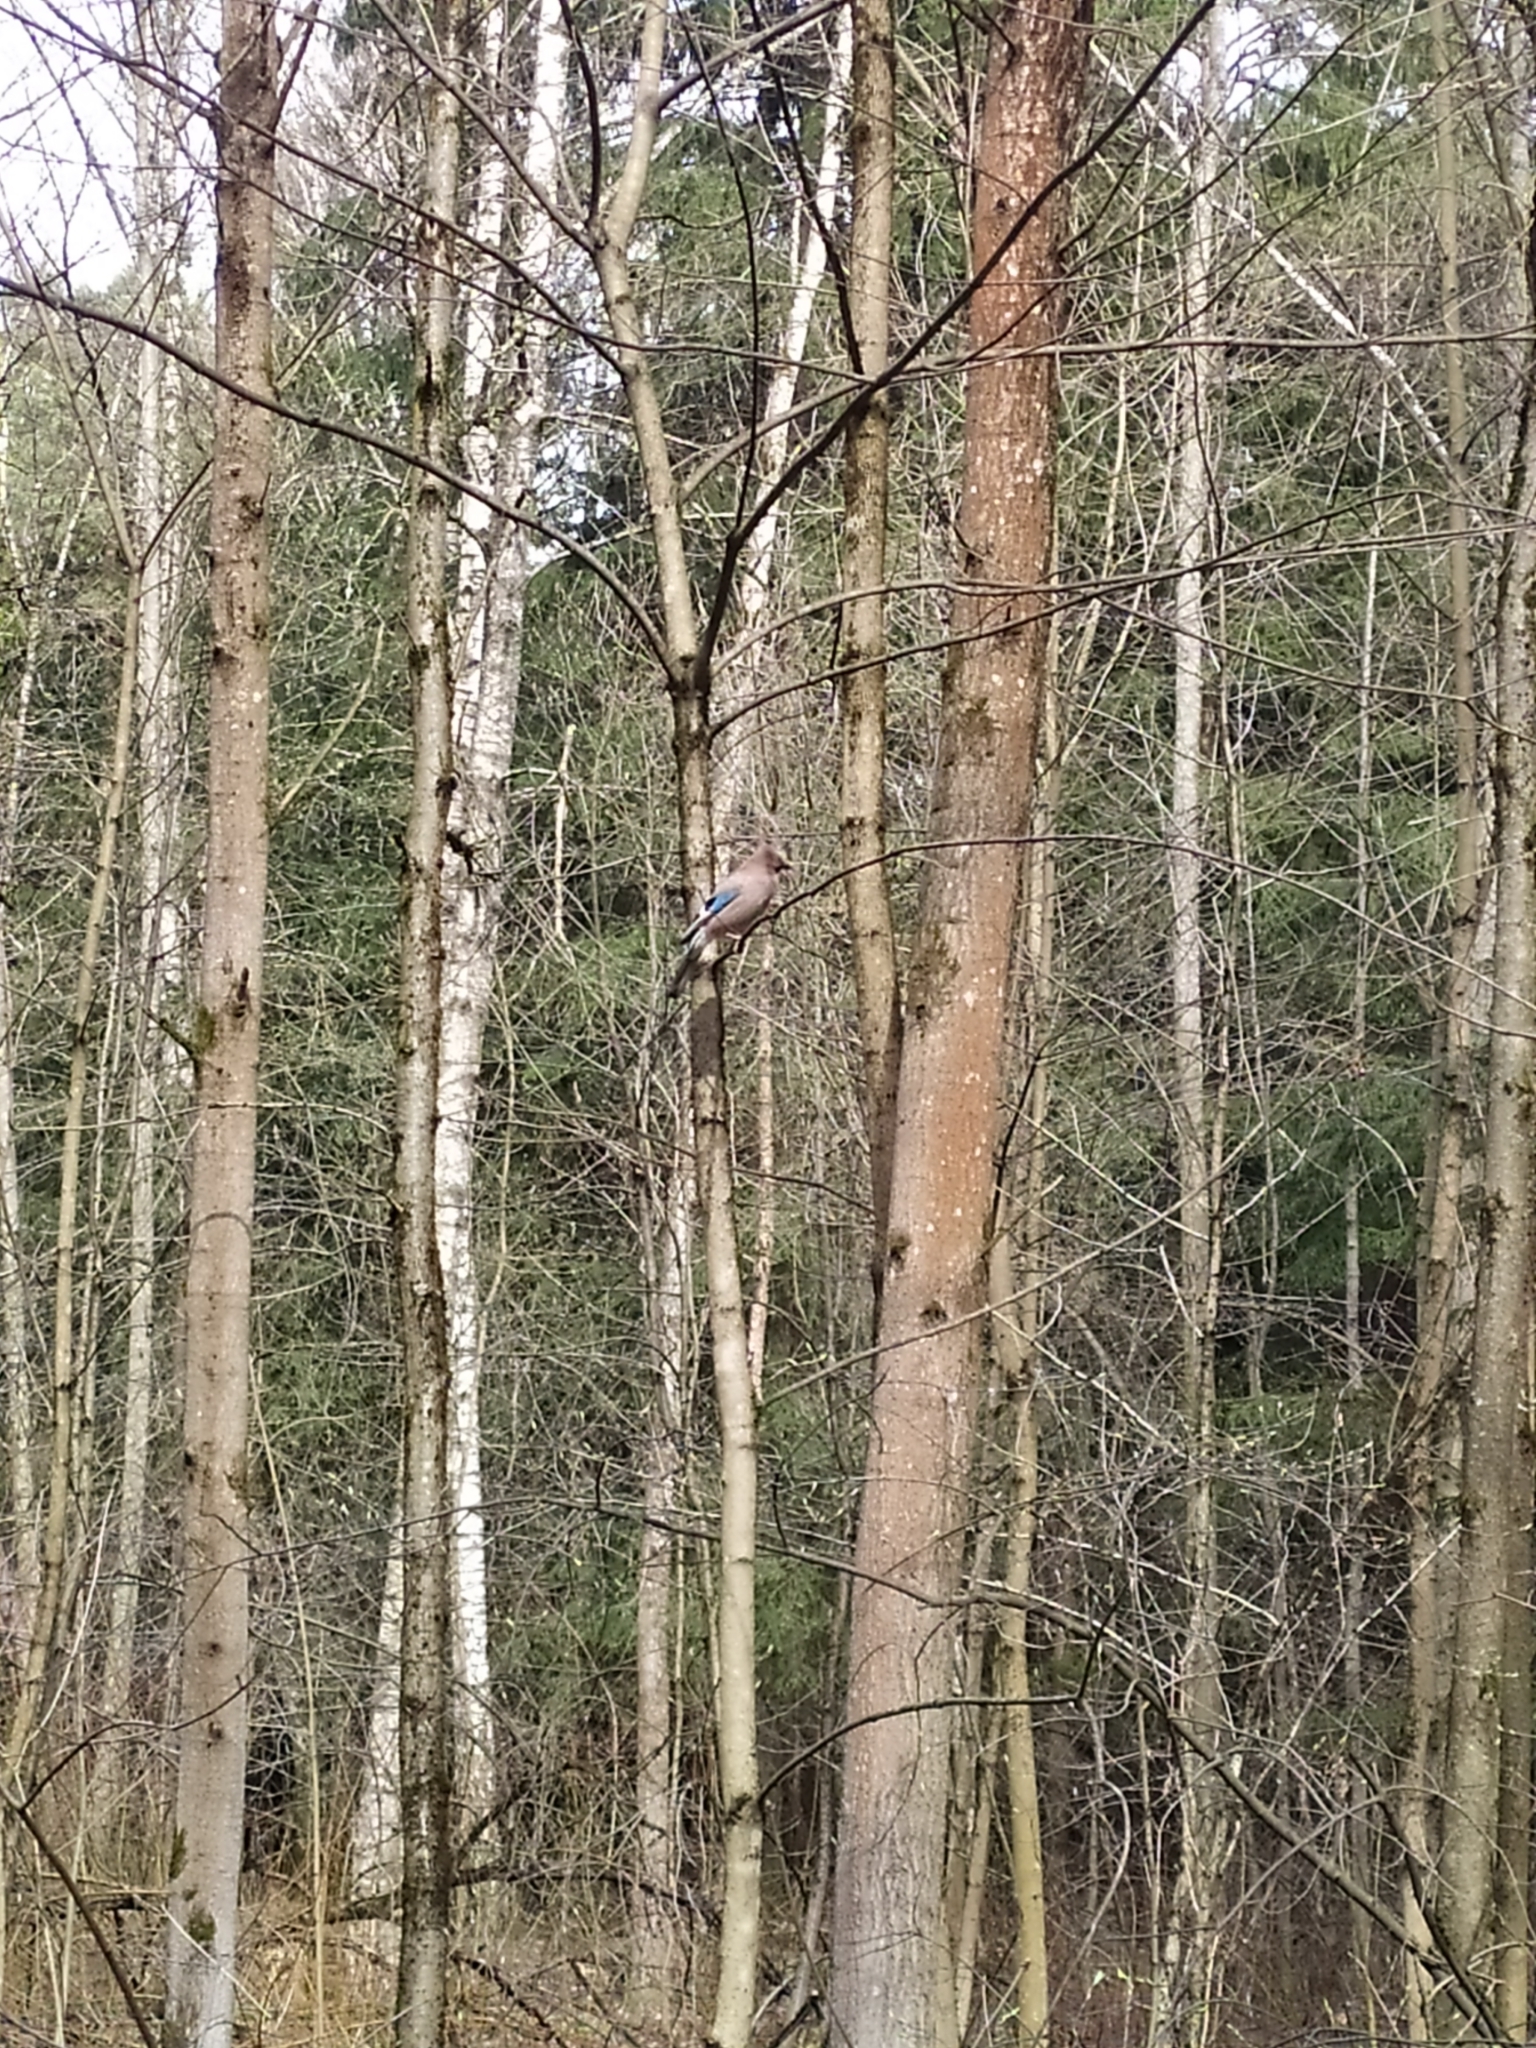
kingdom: Animalia
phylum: Chordata
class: Aves
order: Passeriformes
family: Corvidae
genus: Garrulus
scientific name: Garrulus glandarius
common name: Eurasian jay
